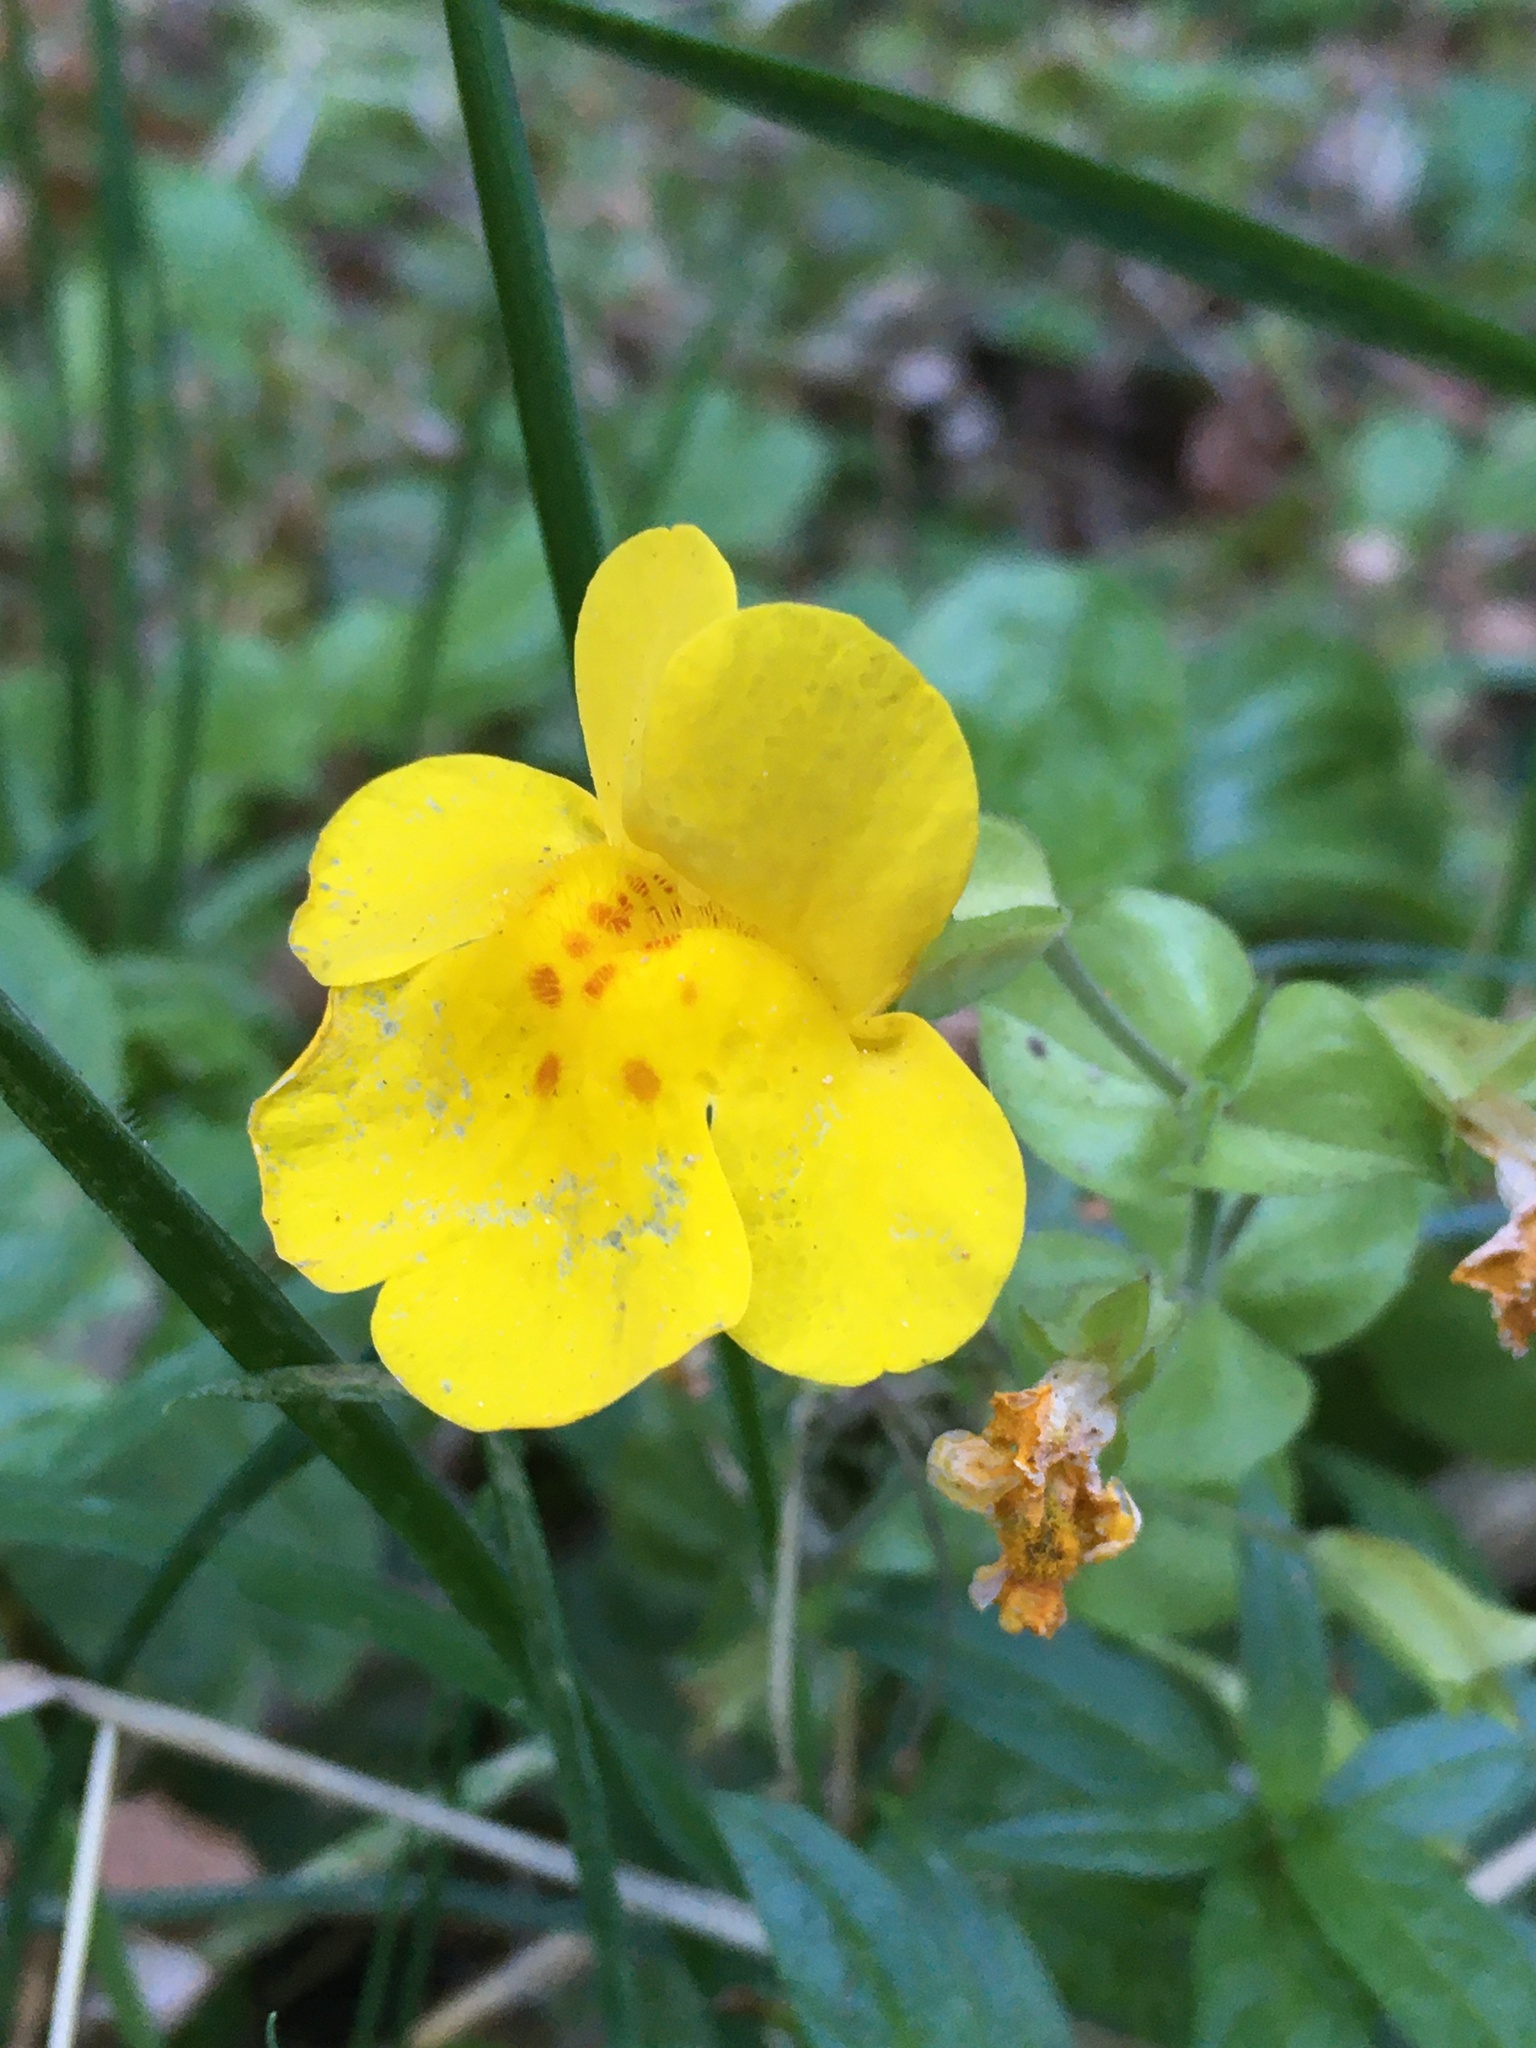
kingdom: Plantae
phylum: Tracheophyta
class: Magnoliopsida
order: Lamiales
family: Phrymaceae
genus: Erythranthe
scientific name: Erythranthe guttata
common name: Monkeyflower
